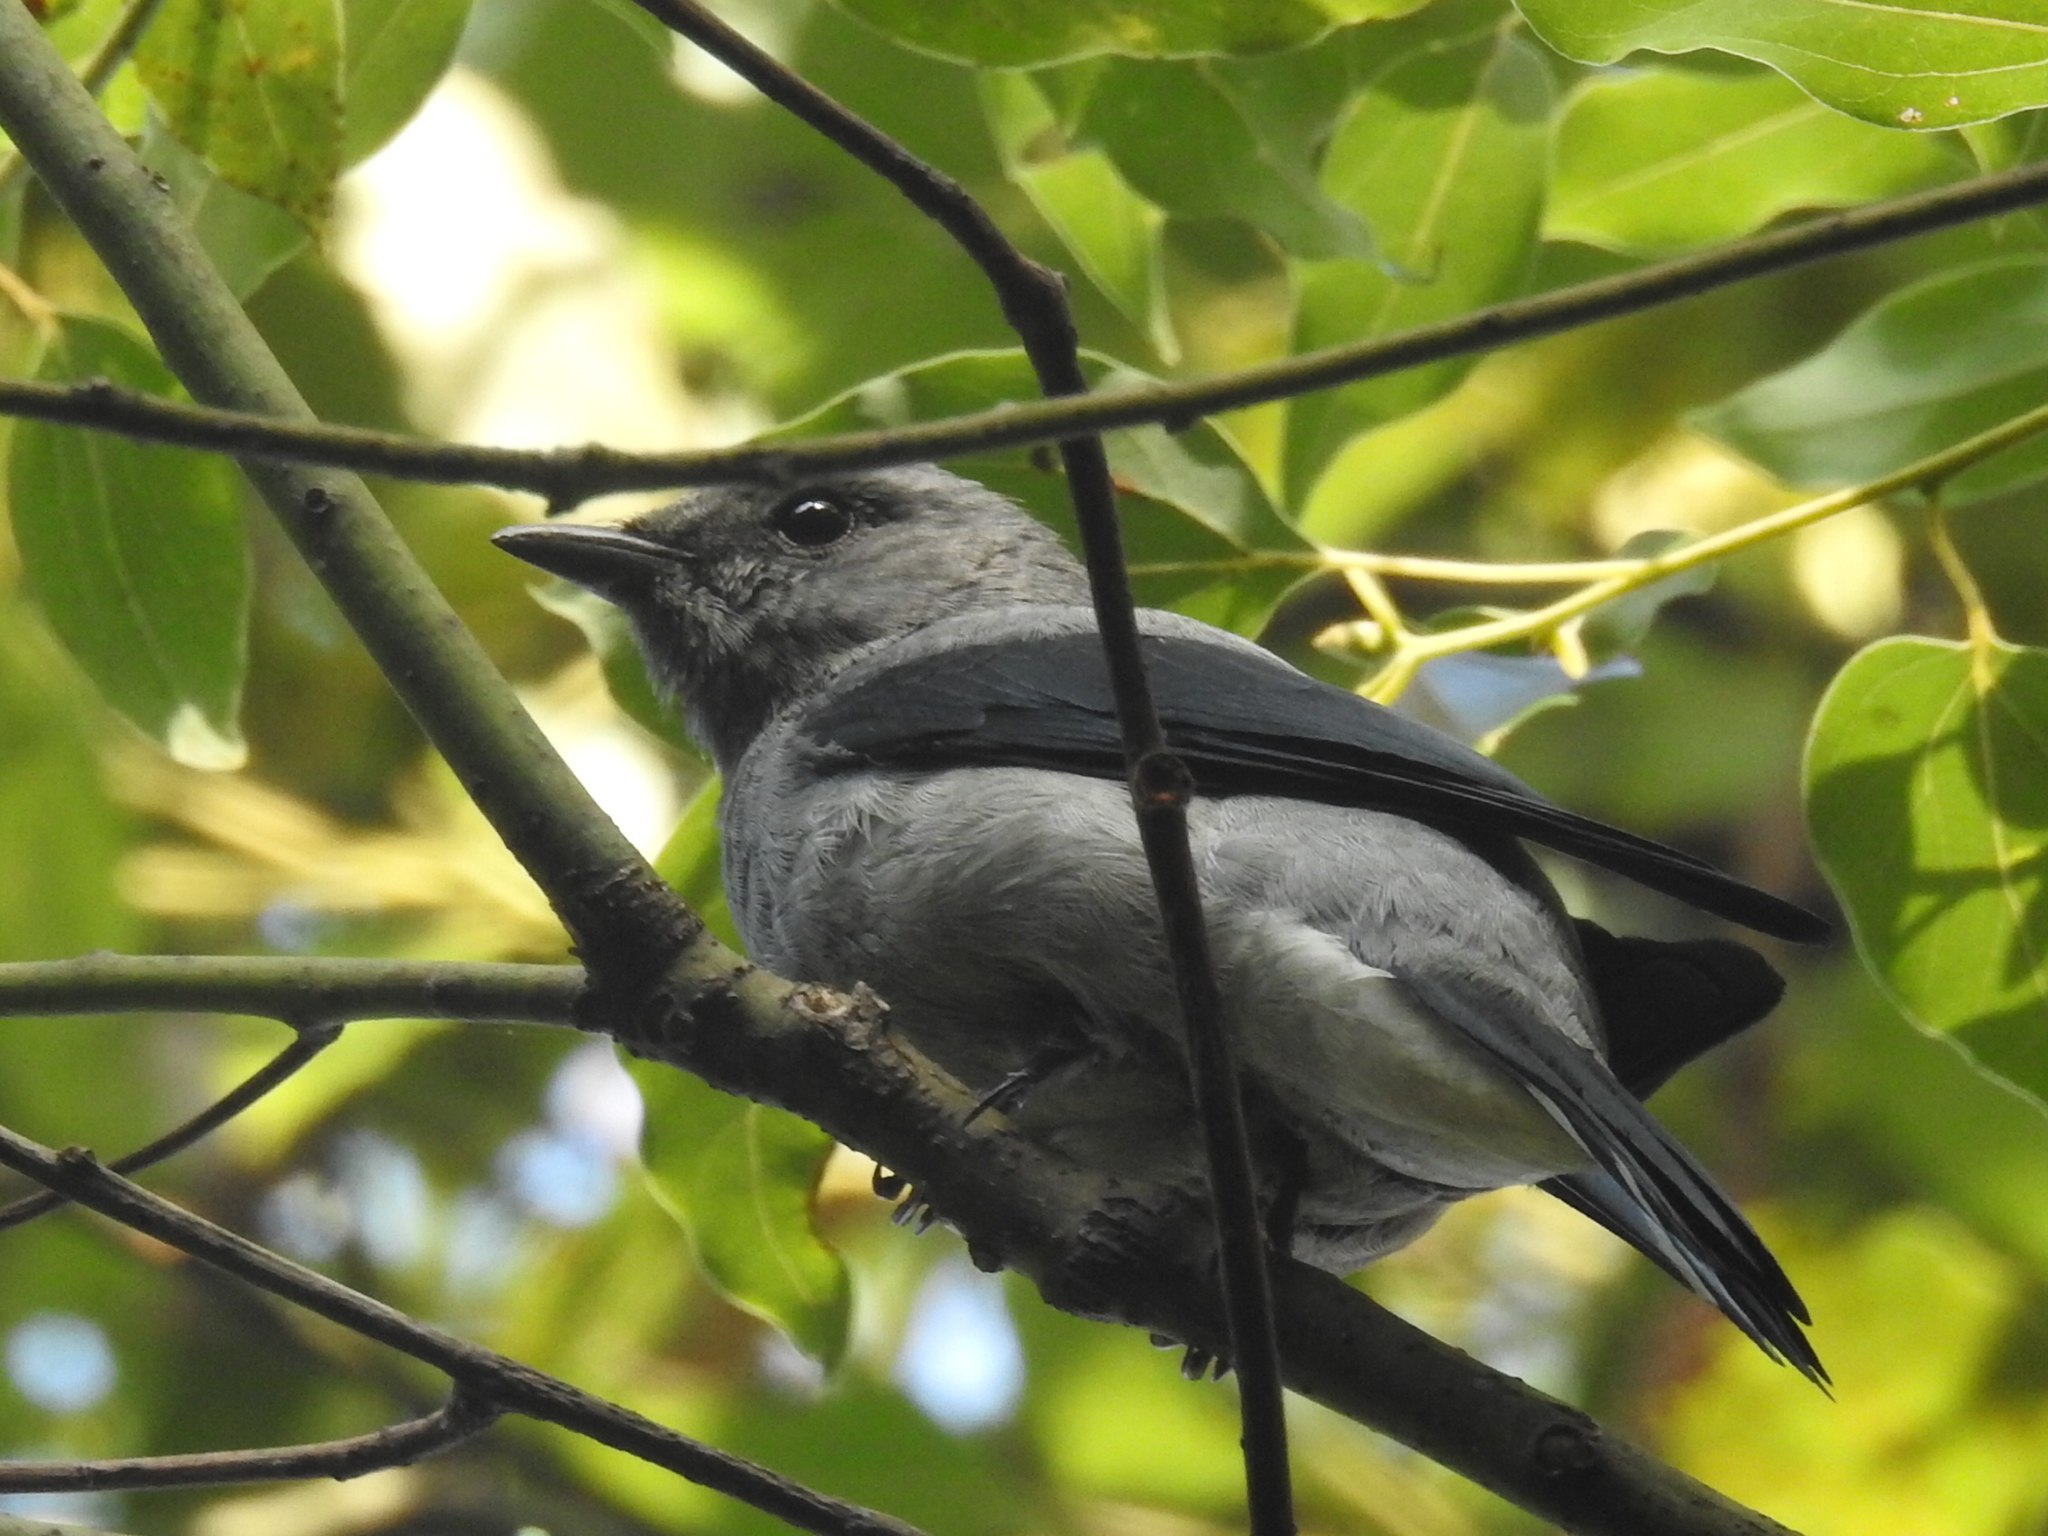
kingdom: Animalia
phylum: Chordata
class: Aves
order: Passeriformes
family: Campephagidae
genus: Coracina
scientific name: Coracina melaschistos
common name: Black-winged cuckooshrike
